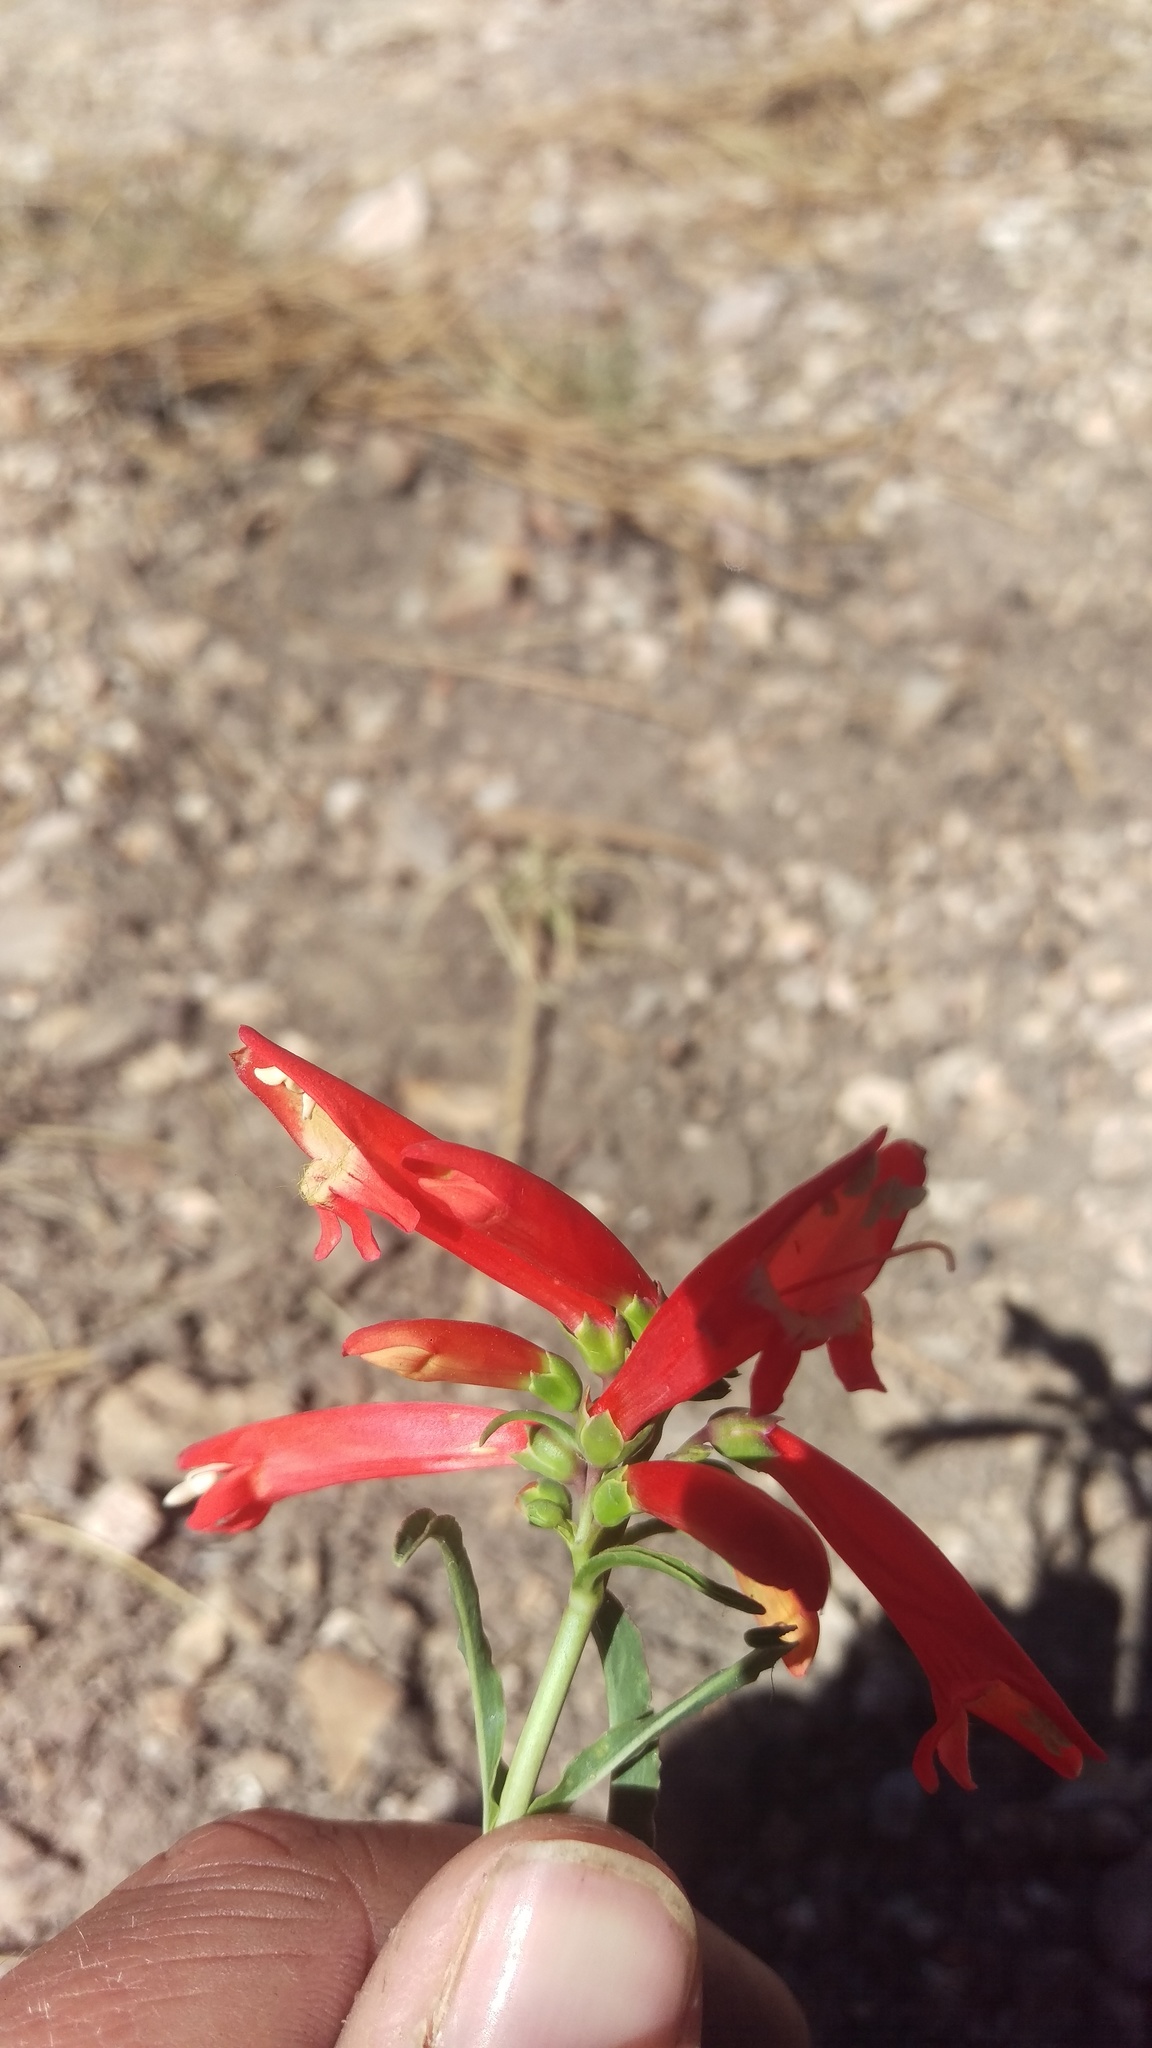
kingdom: Plantae
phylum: Tracheophyta
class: Magnoliopsida
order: Lamiales
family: Plantaginaceae
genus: Penstemon
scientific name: Penstemon barbatus
